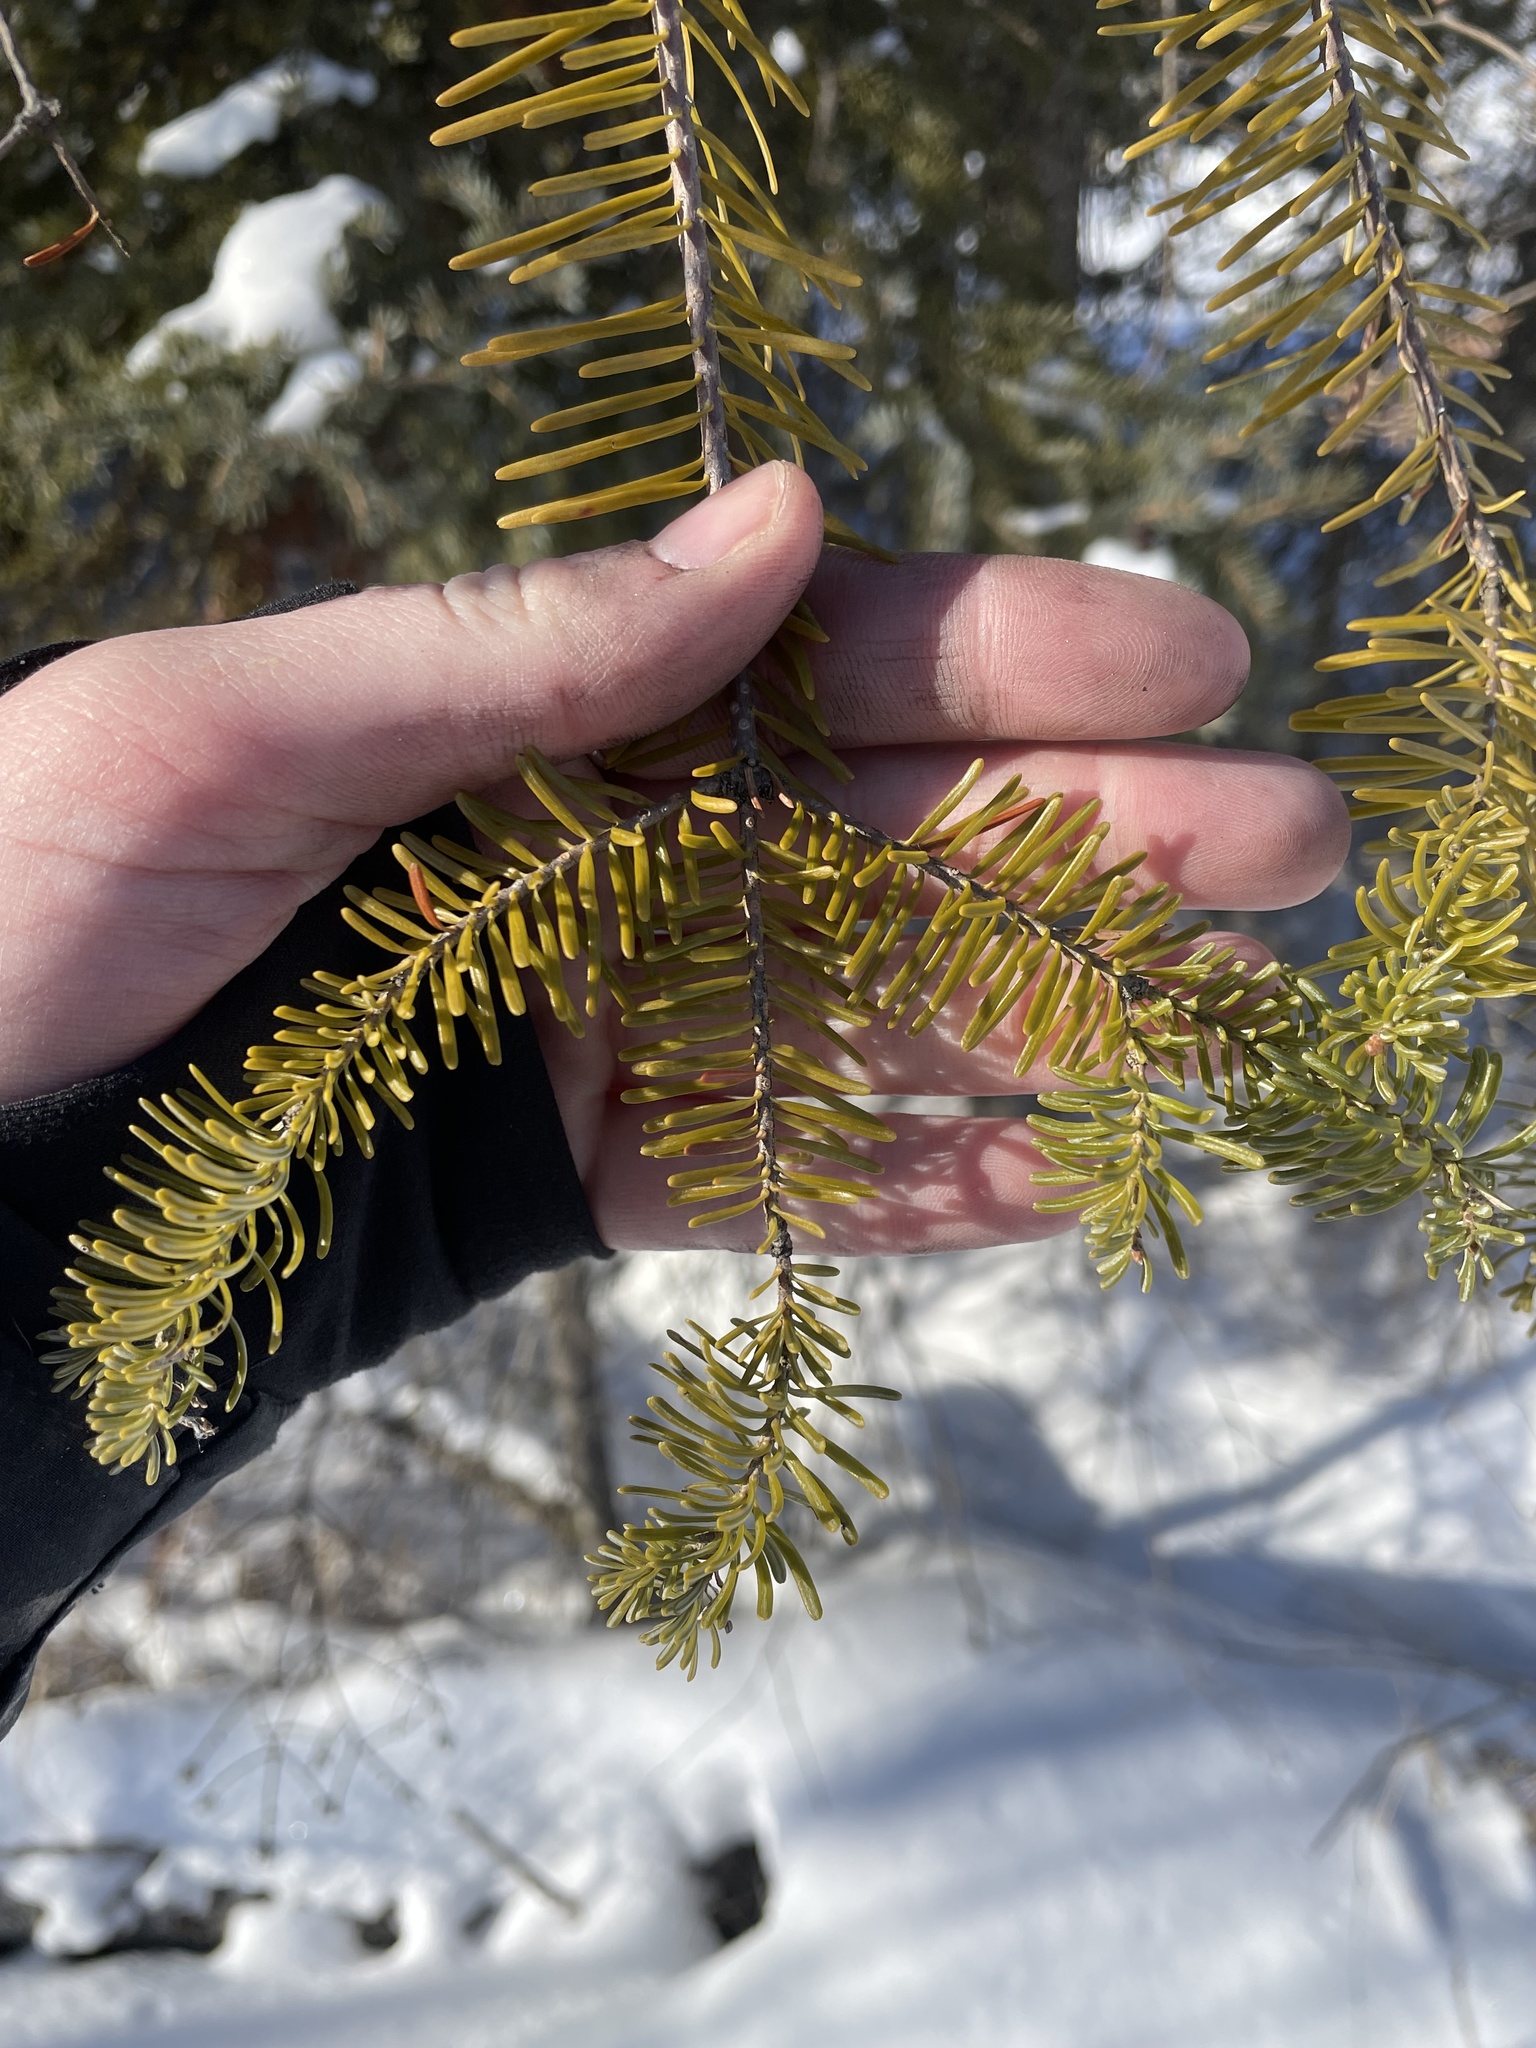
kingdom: Plantae
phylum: Tracheophyta
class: Pinopsida
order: Pinales
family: Pinaceae
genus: Abies
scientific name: Abies balsamea
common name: Balsam fir
